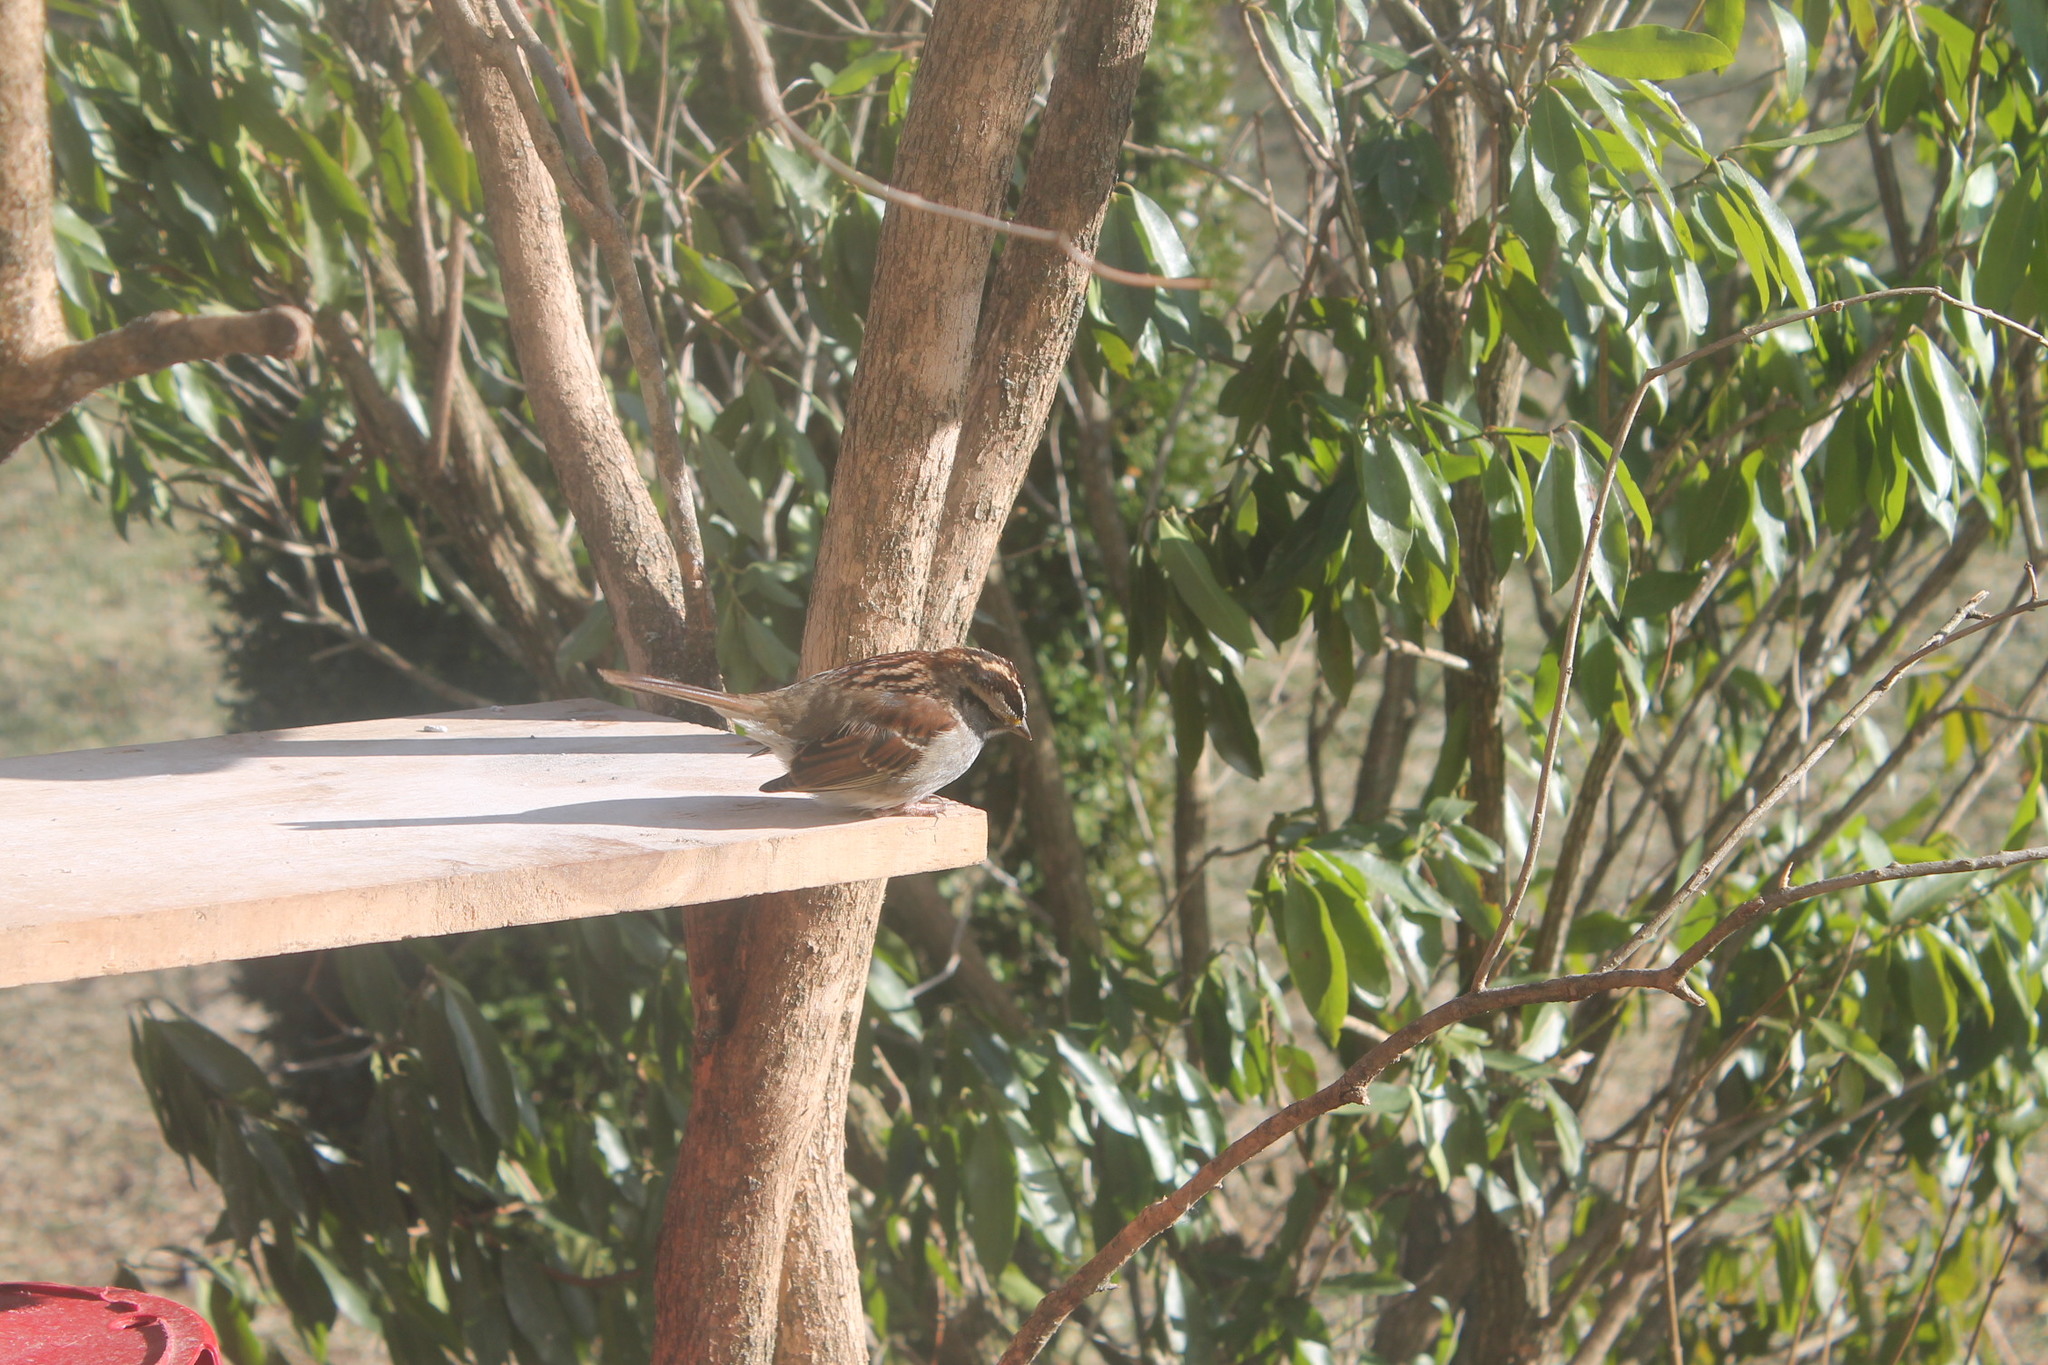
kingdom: Animalia
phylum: Chordata
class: Aves
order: Passeriformes
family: Passerellidae
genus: Zonotrichia
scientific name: Zonotrichia albicollis
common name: White-throated sparrow
